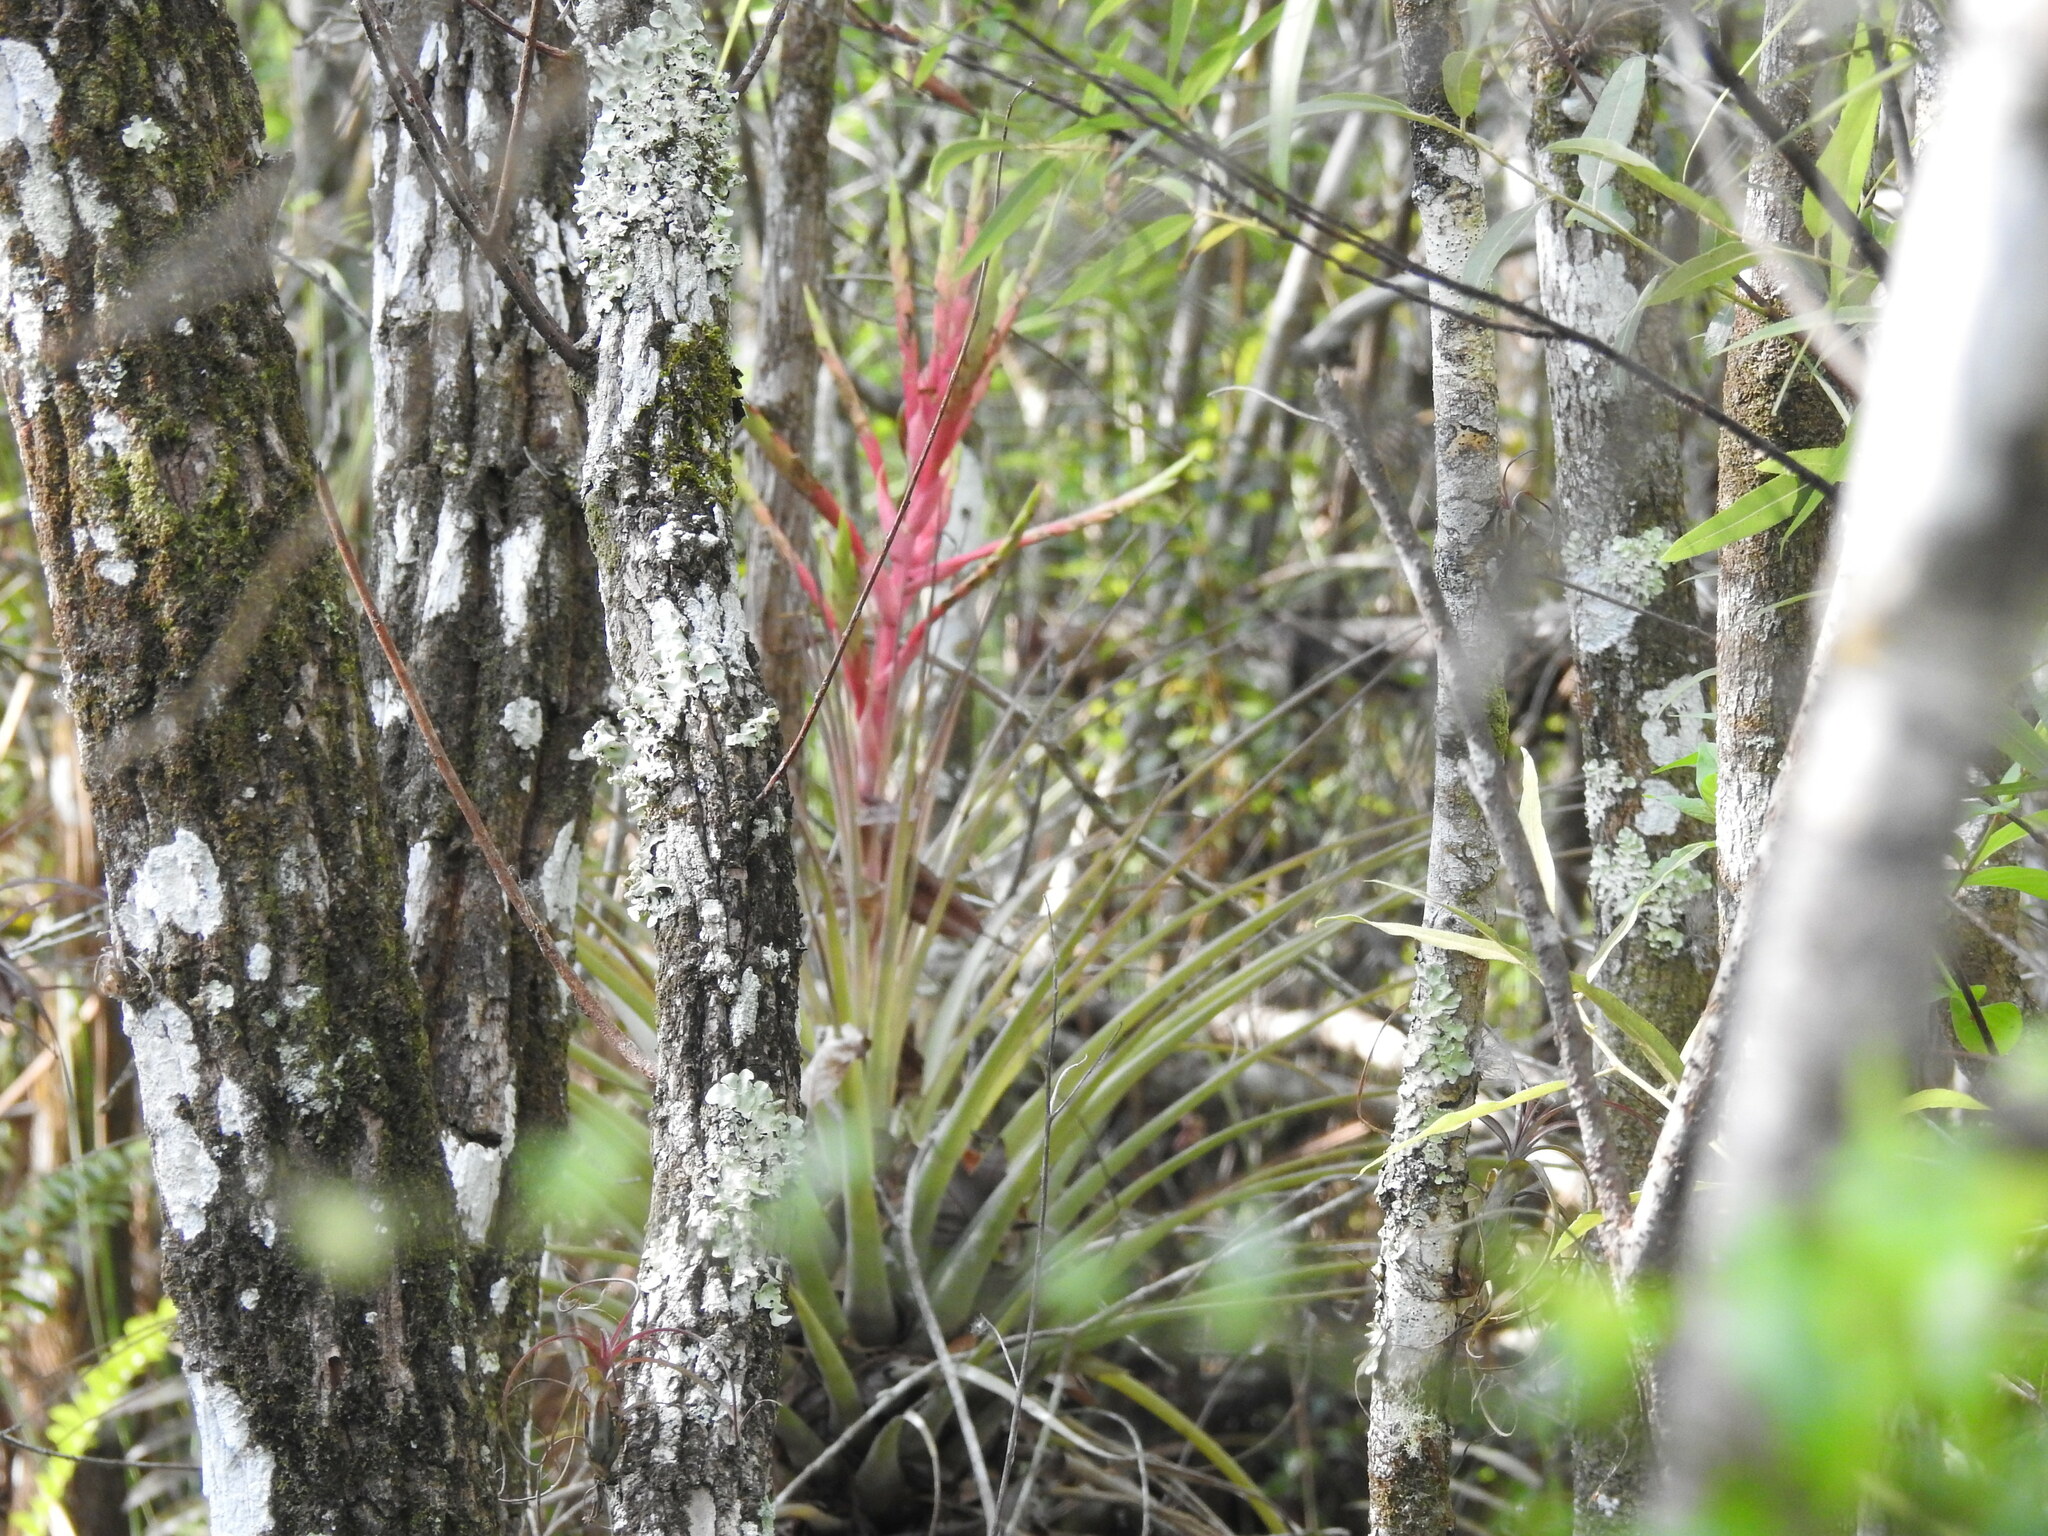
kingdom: Plantae
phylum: Tracheophyta
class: Liliopsida
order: Poales
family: Bromeliaceae
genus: Tillandsia
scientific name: Tillandsia fasciculata
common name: Giant airplant
